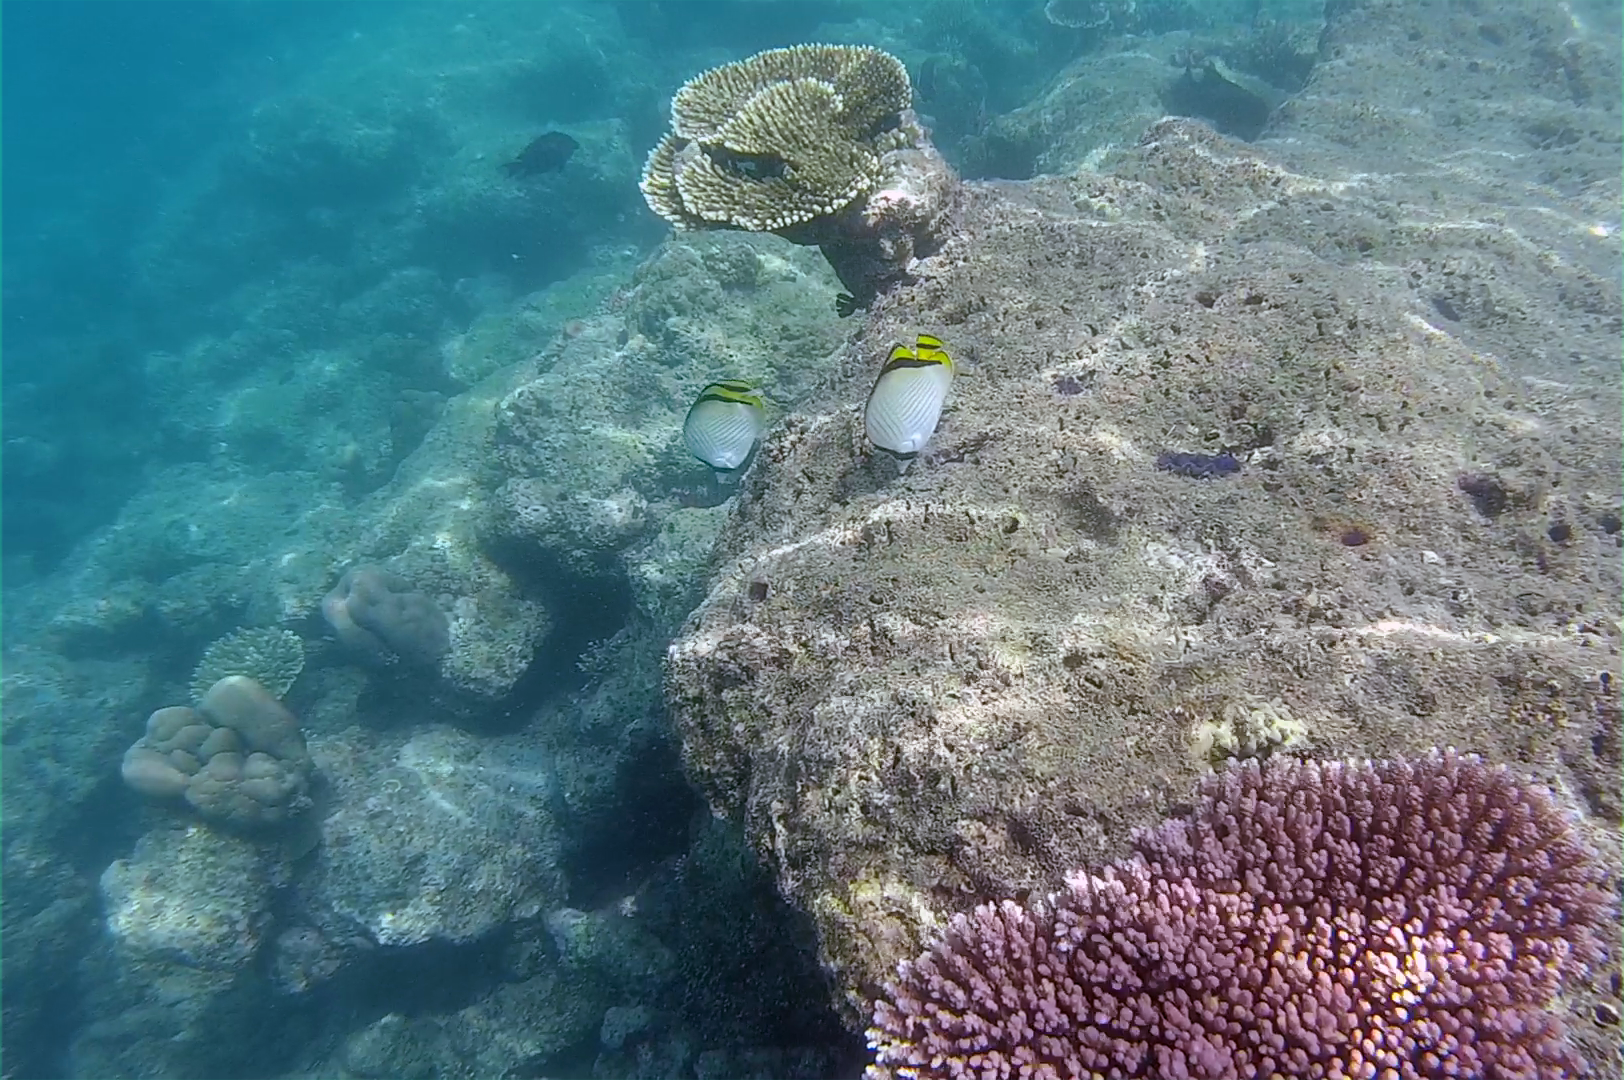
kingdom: Animalia
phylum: Chordata
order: Perciformes
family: Chaetodontidae
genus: Chaetodon
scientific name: Chaetodon vagabundus
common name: Vagabond butterflyfish
